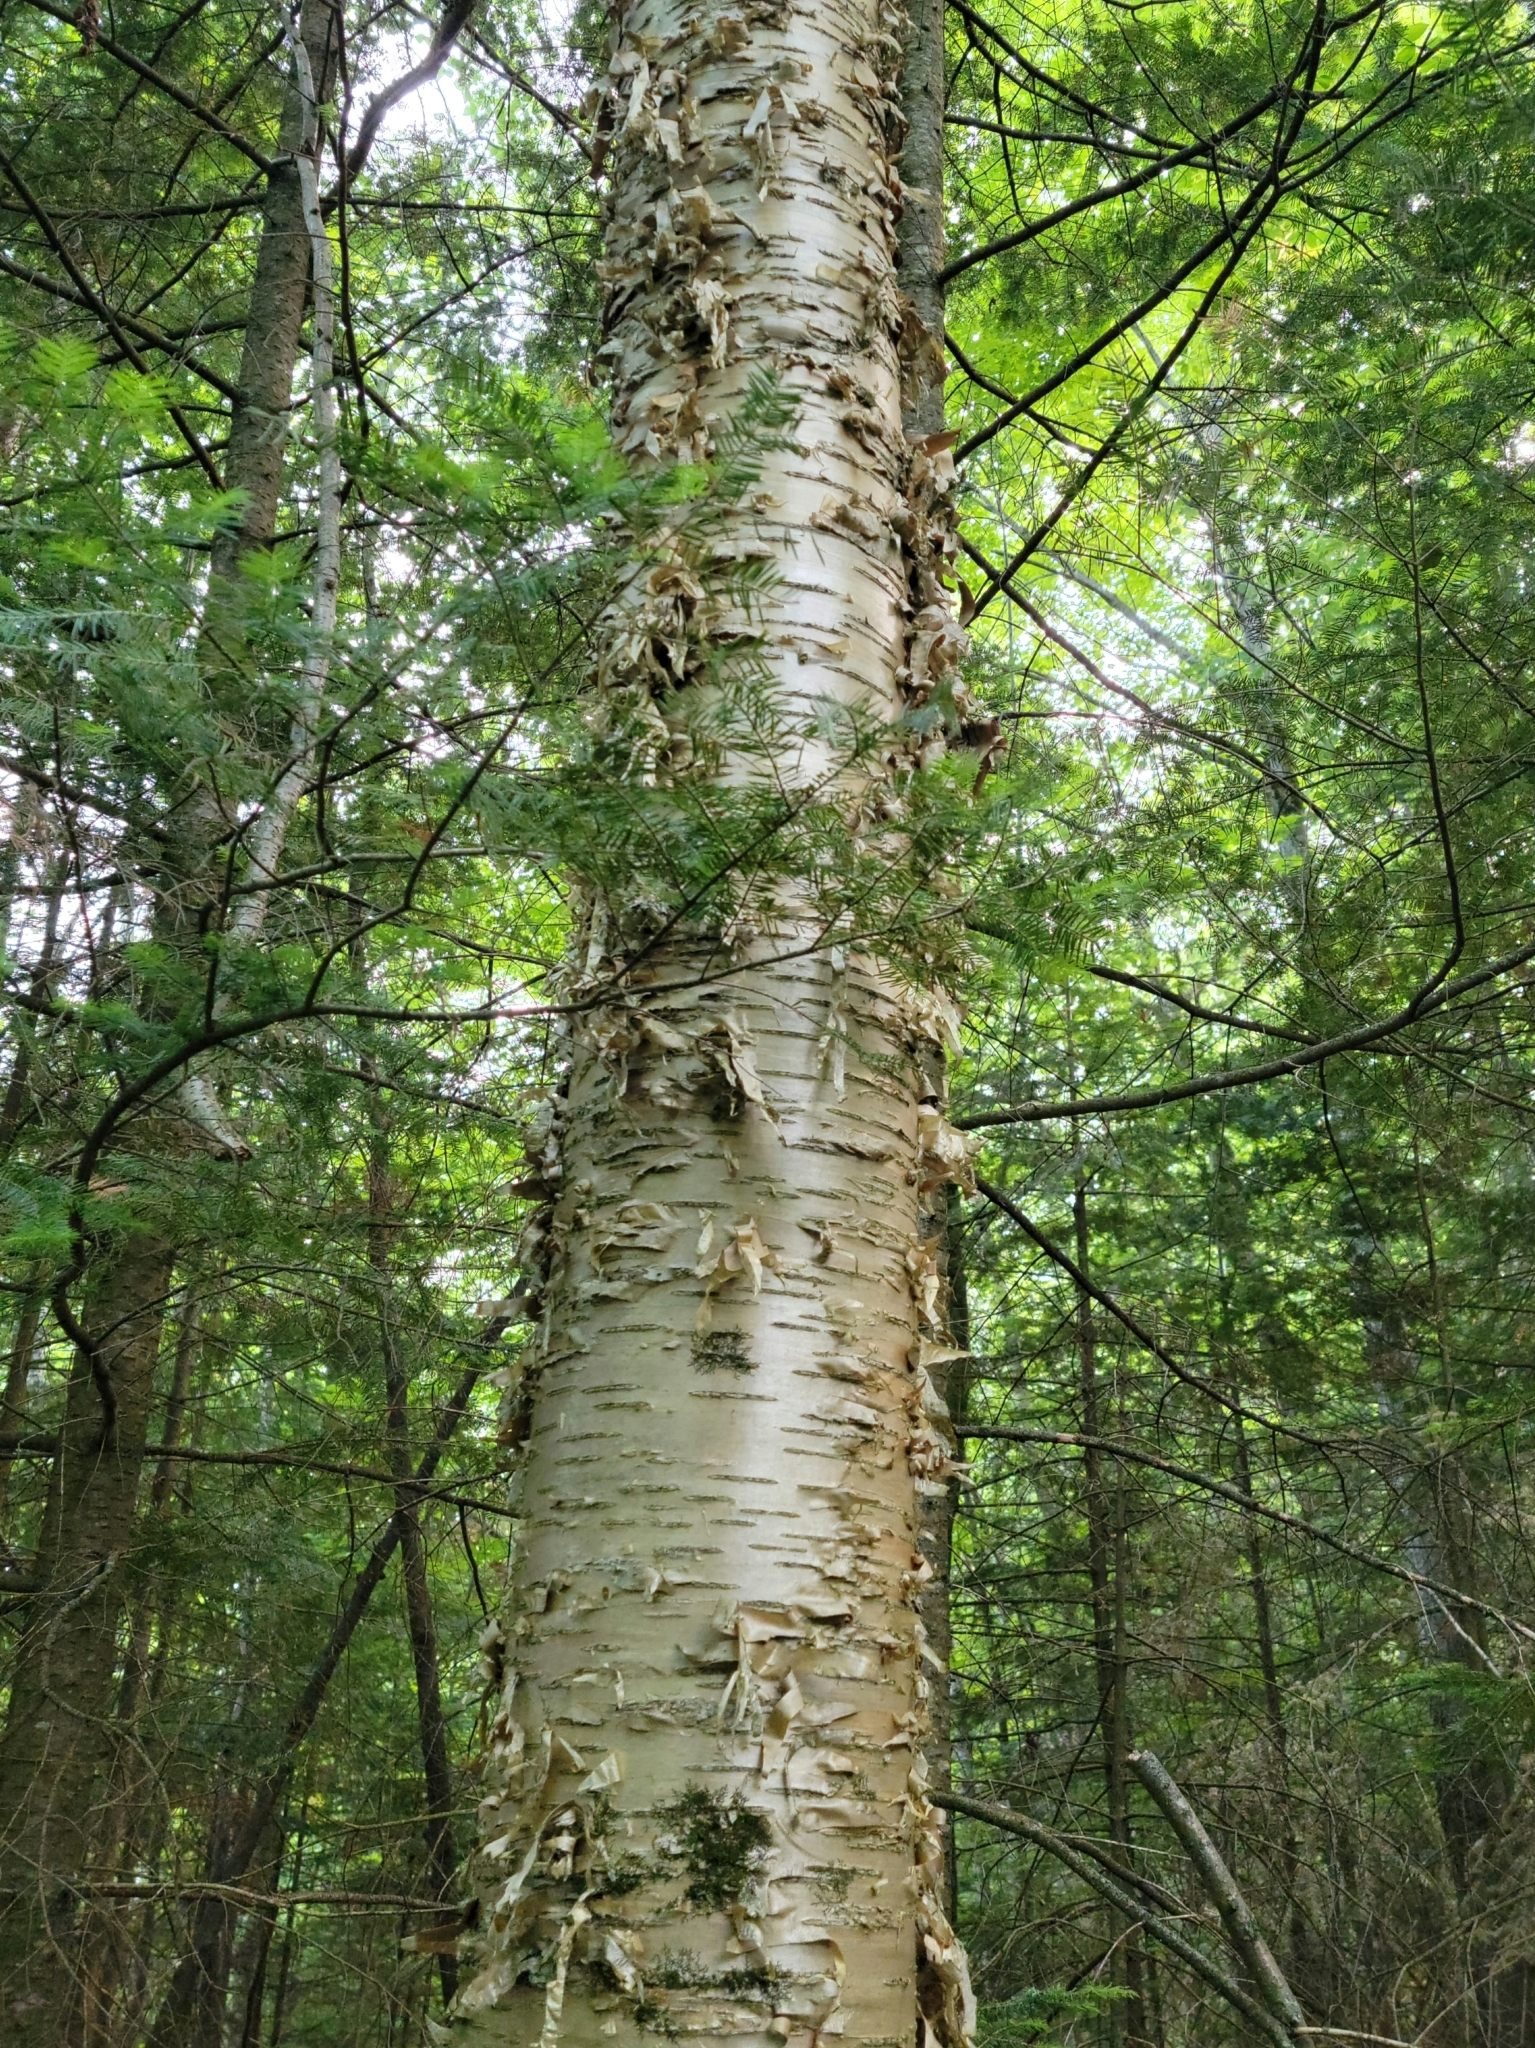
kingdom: Plantae
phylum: Tracheophyta
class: Magnoliopsida
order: Fagales
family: Betulaceae
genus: Betula
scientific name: Betula alleghaniensis
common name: Yellow birch
